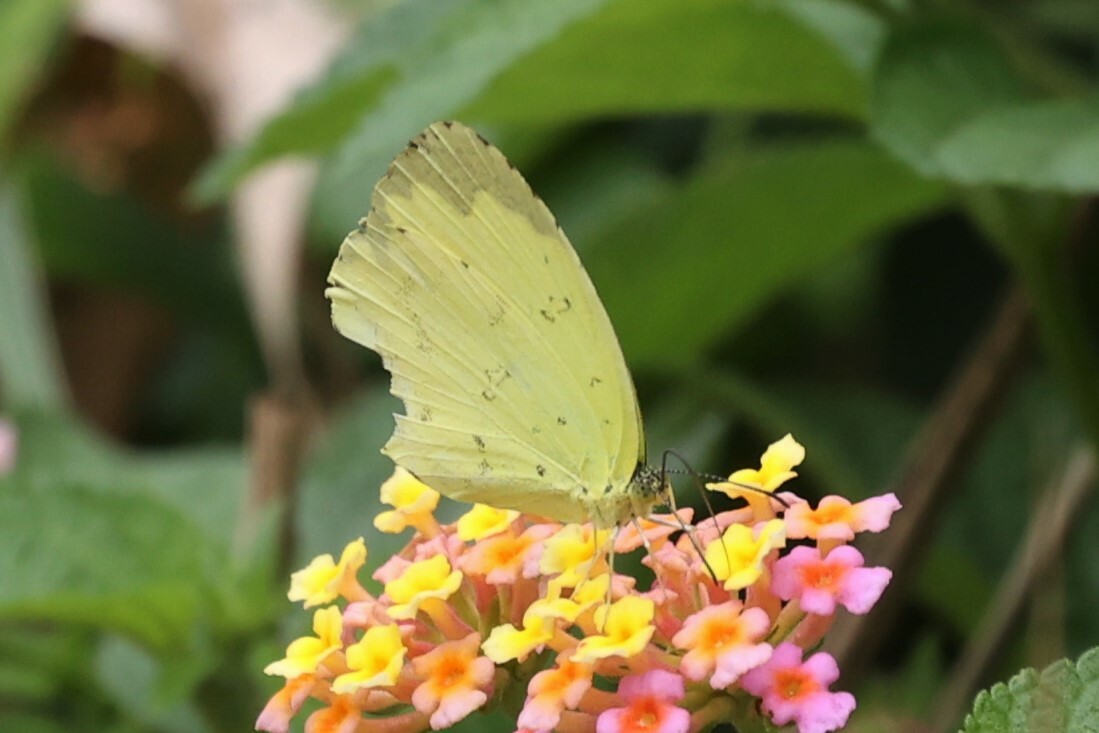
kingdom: Animalia
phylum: Arthropoda
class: Insecta
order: Lepidoptera
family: Pieridae
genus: Eurema
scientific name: Eurema senegalensis
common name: Forest grass yellow
